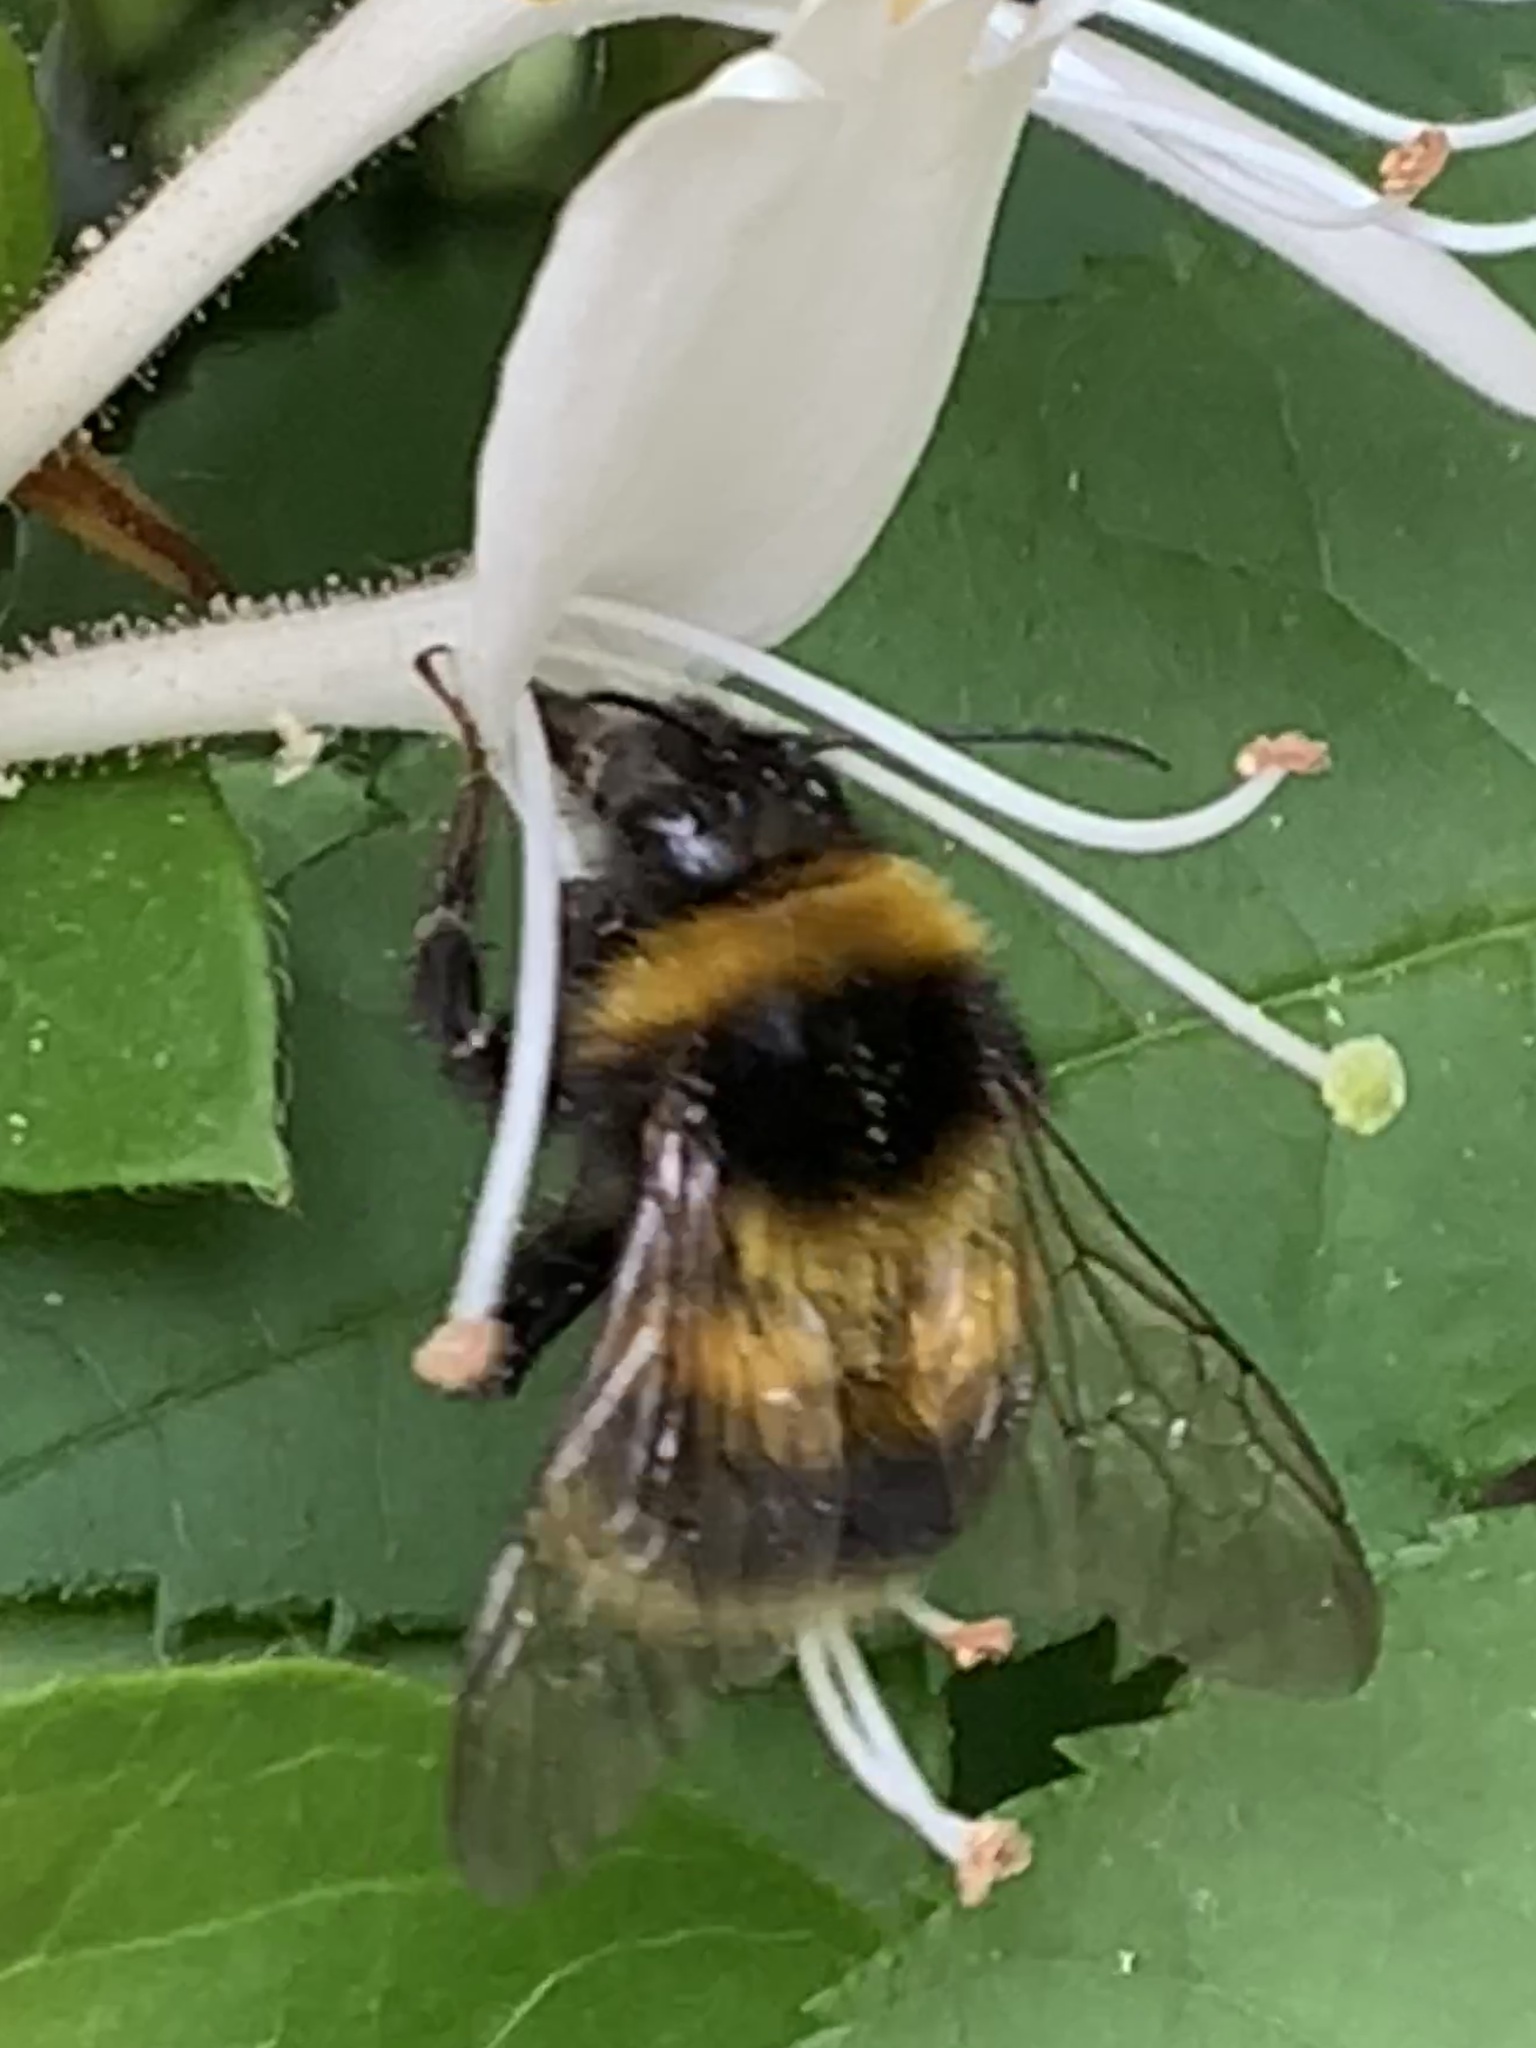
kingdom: Animalia
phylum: Arthropoda
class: Insecta
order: Hymenoptera
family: Apidae
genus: Bombus
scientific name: Bombus hortorum
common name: Garden bumblebee
